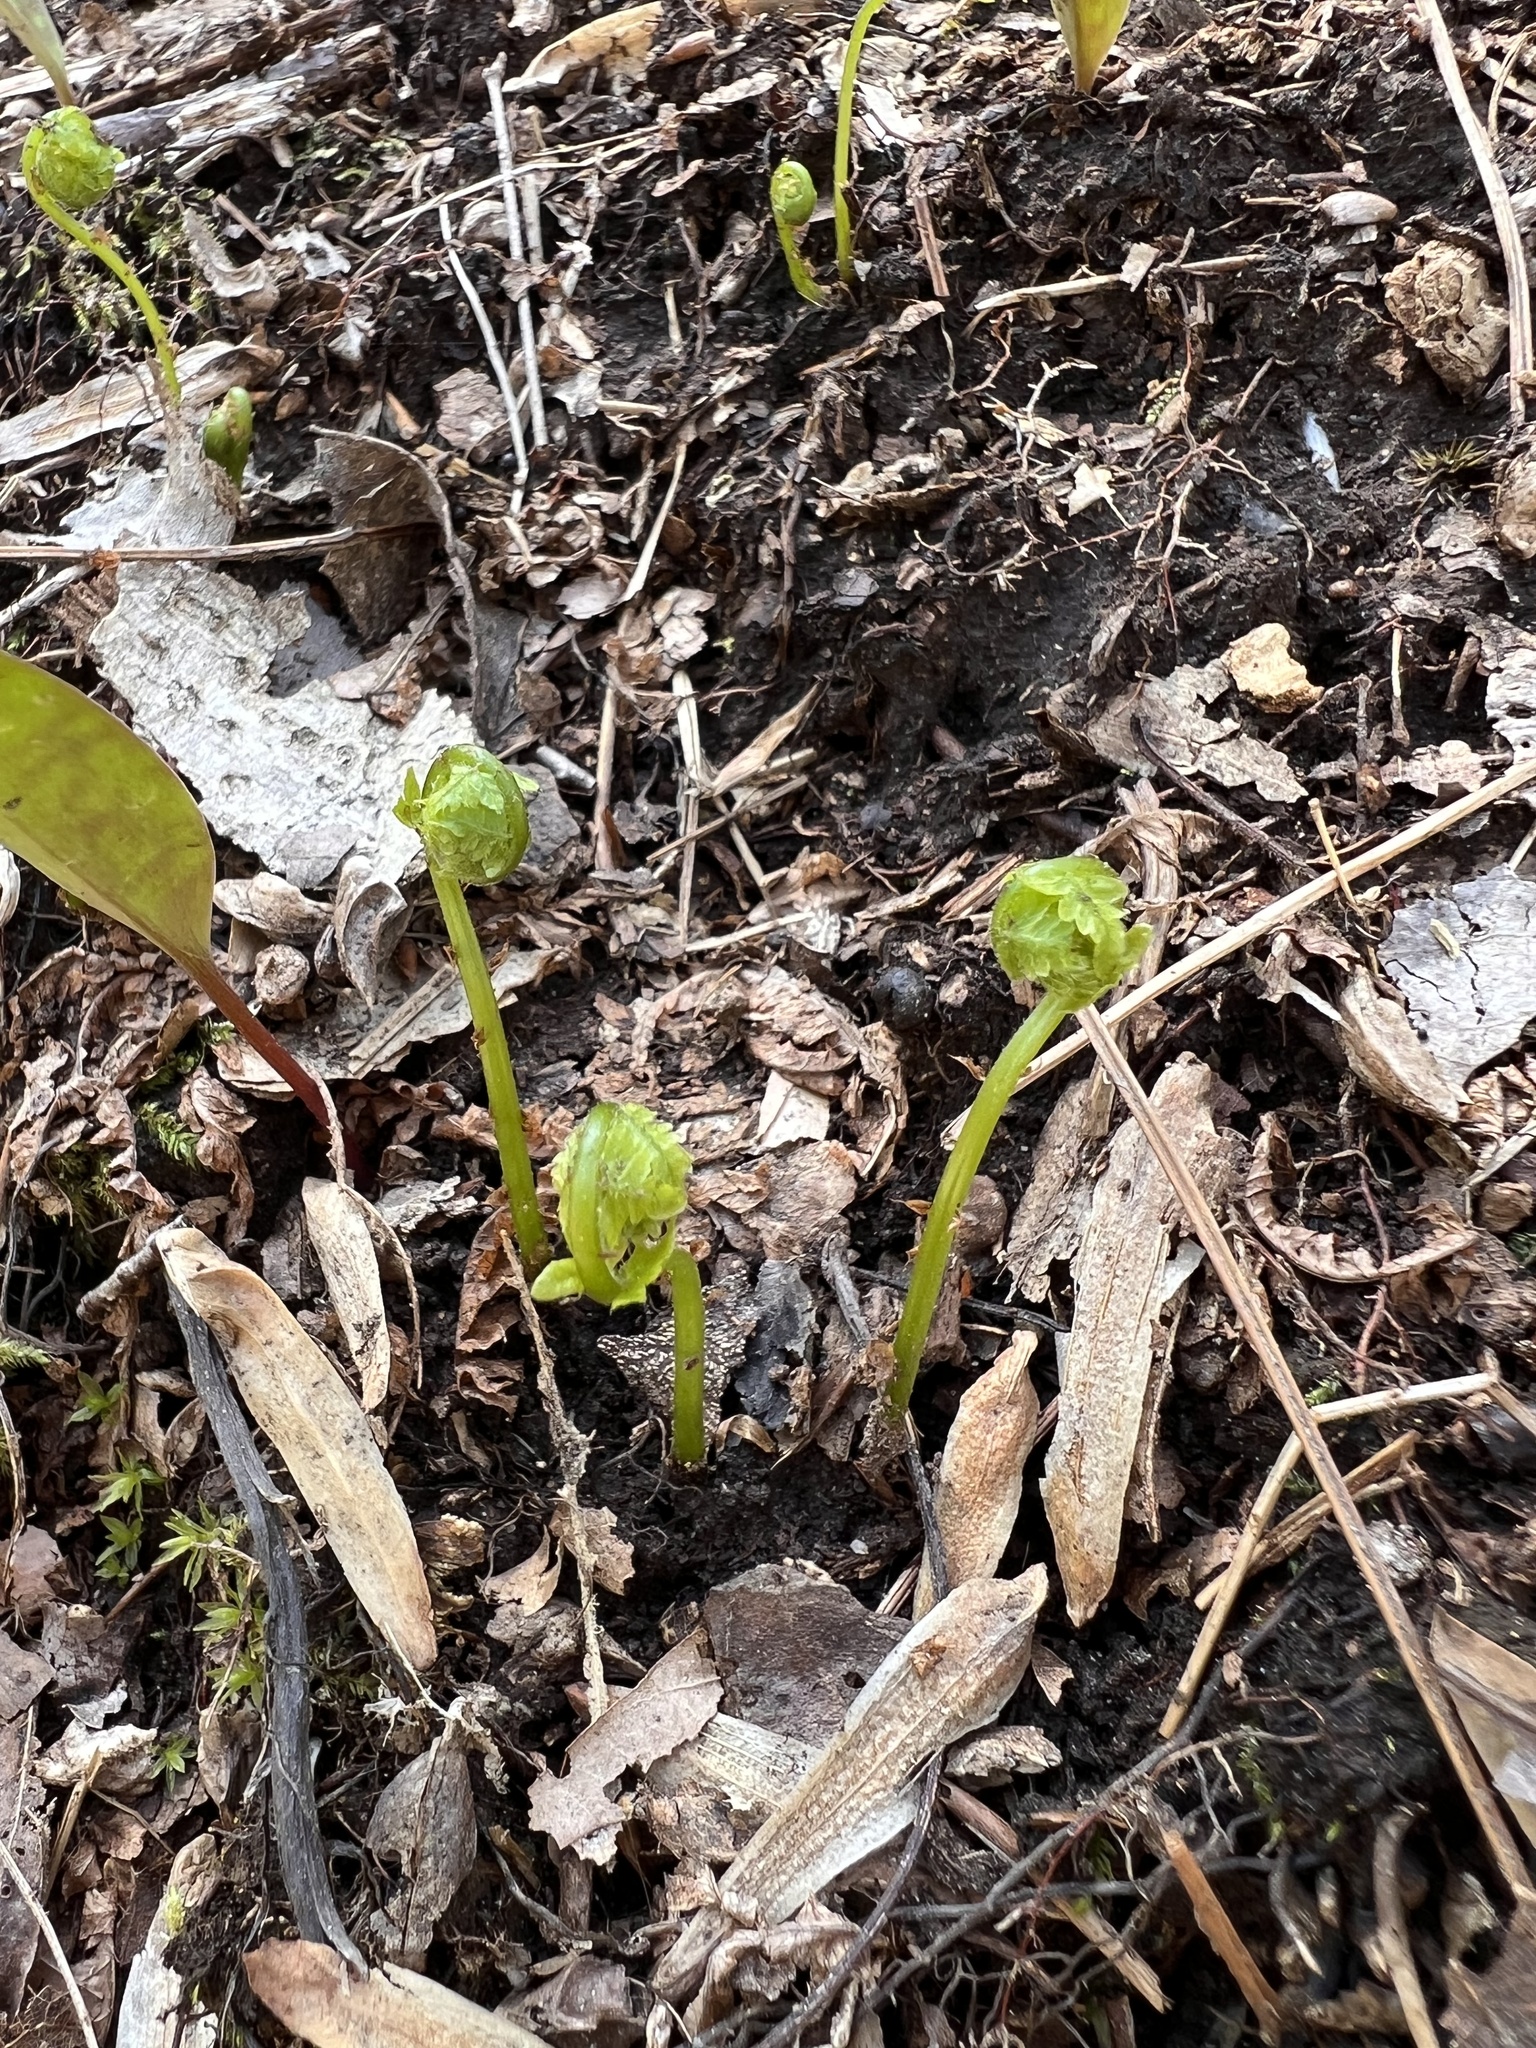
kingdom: Plantae
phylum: Tracheophyta
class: Polypodiopsida
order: Polypodiales
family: Onocleaceae
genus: Matteuccia
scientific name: Matteuccia struthiopteris
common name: Ostrich fern
